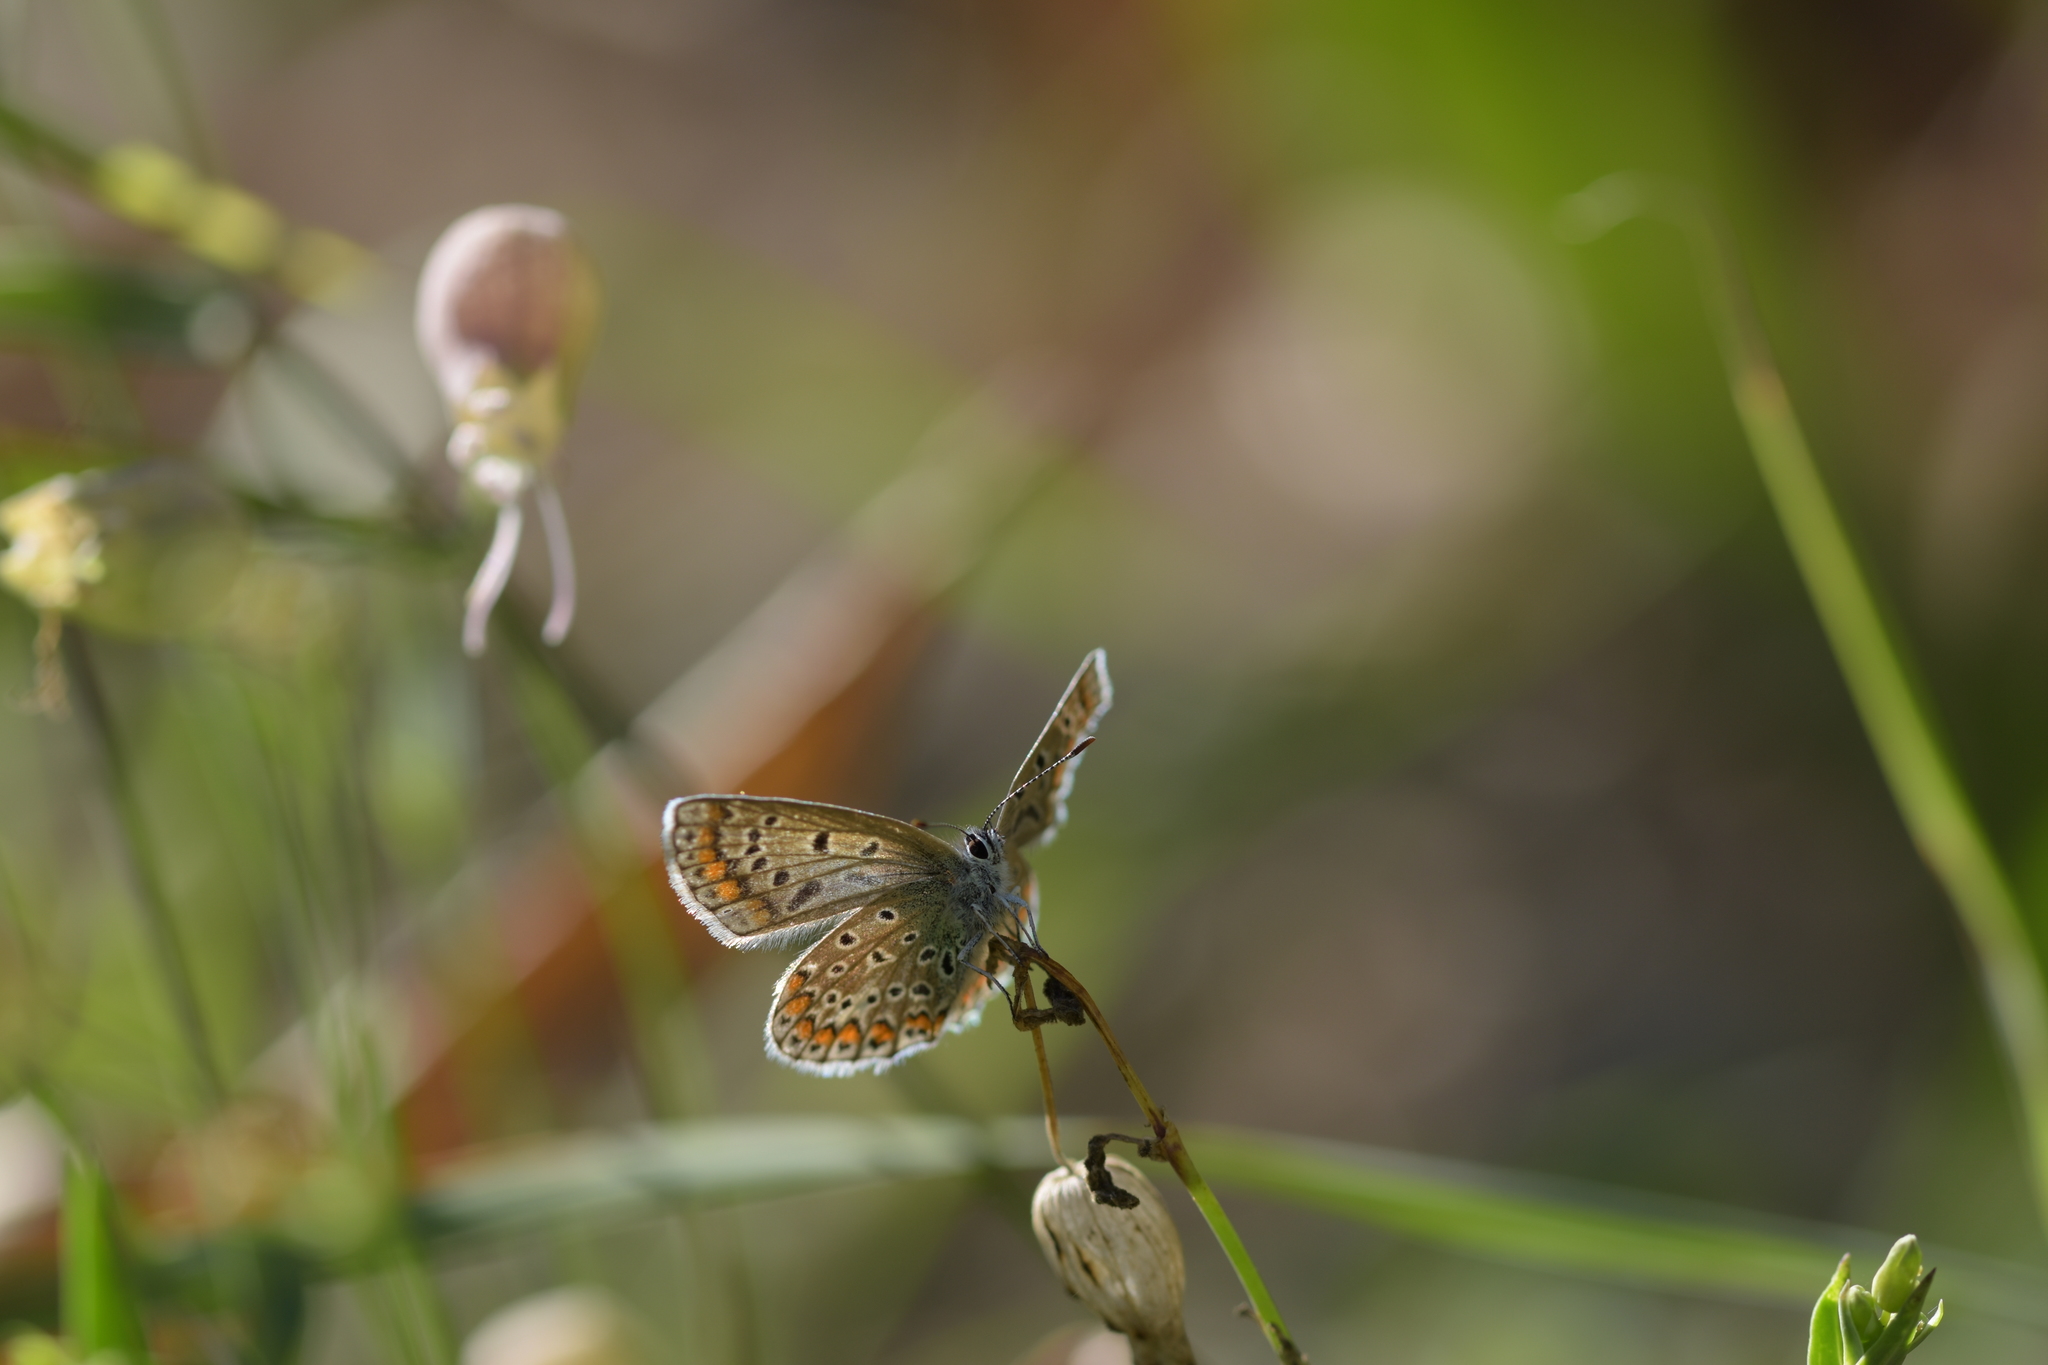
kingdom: Animalia
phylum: Arthropoda
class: Insecta
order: Lepidoptera
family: Lycaenidae
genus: Polyommatus
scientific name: Polyommatus icarus
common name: Common blue
